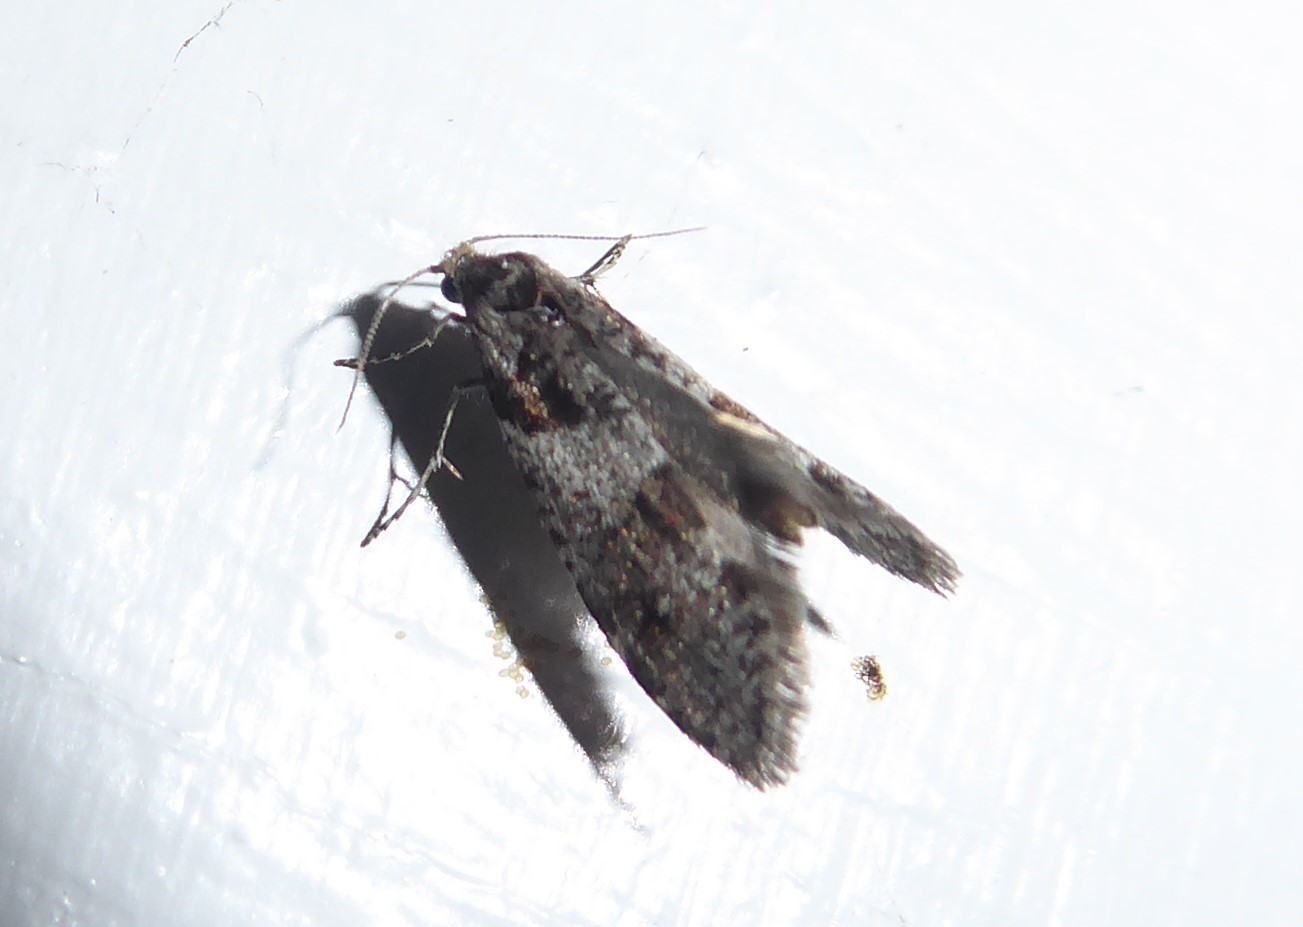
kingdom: Animalia
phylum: Arthropoda
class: Insecta
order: Lepidoptera
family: Psychidae
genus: Lepidoscia
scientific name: Lepidoscia heliochares
